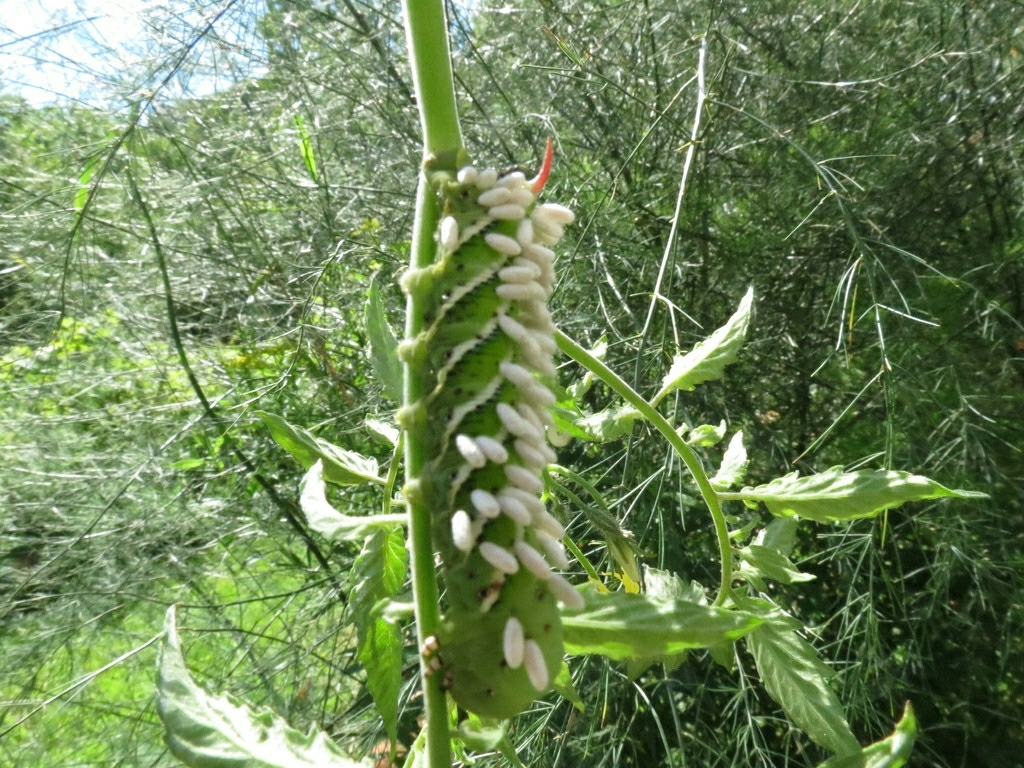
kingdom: Animalia
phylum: Arthropoda
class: Insecta
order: Lepidoptera
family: Sphingidae
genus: Manduca
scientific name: Manduca sexta
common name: Carolina sphinx
